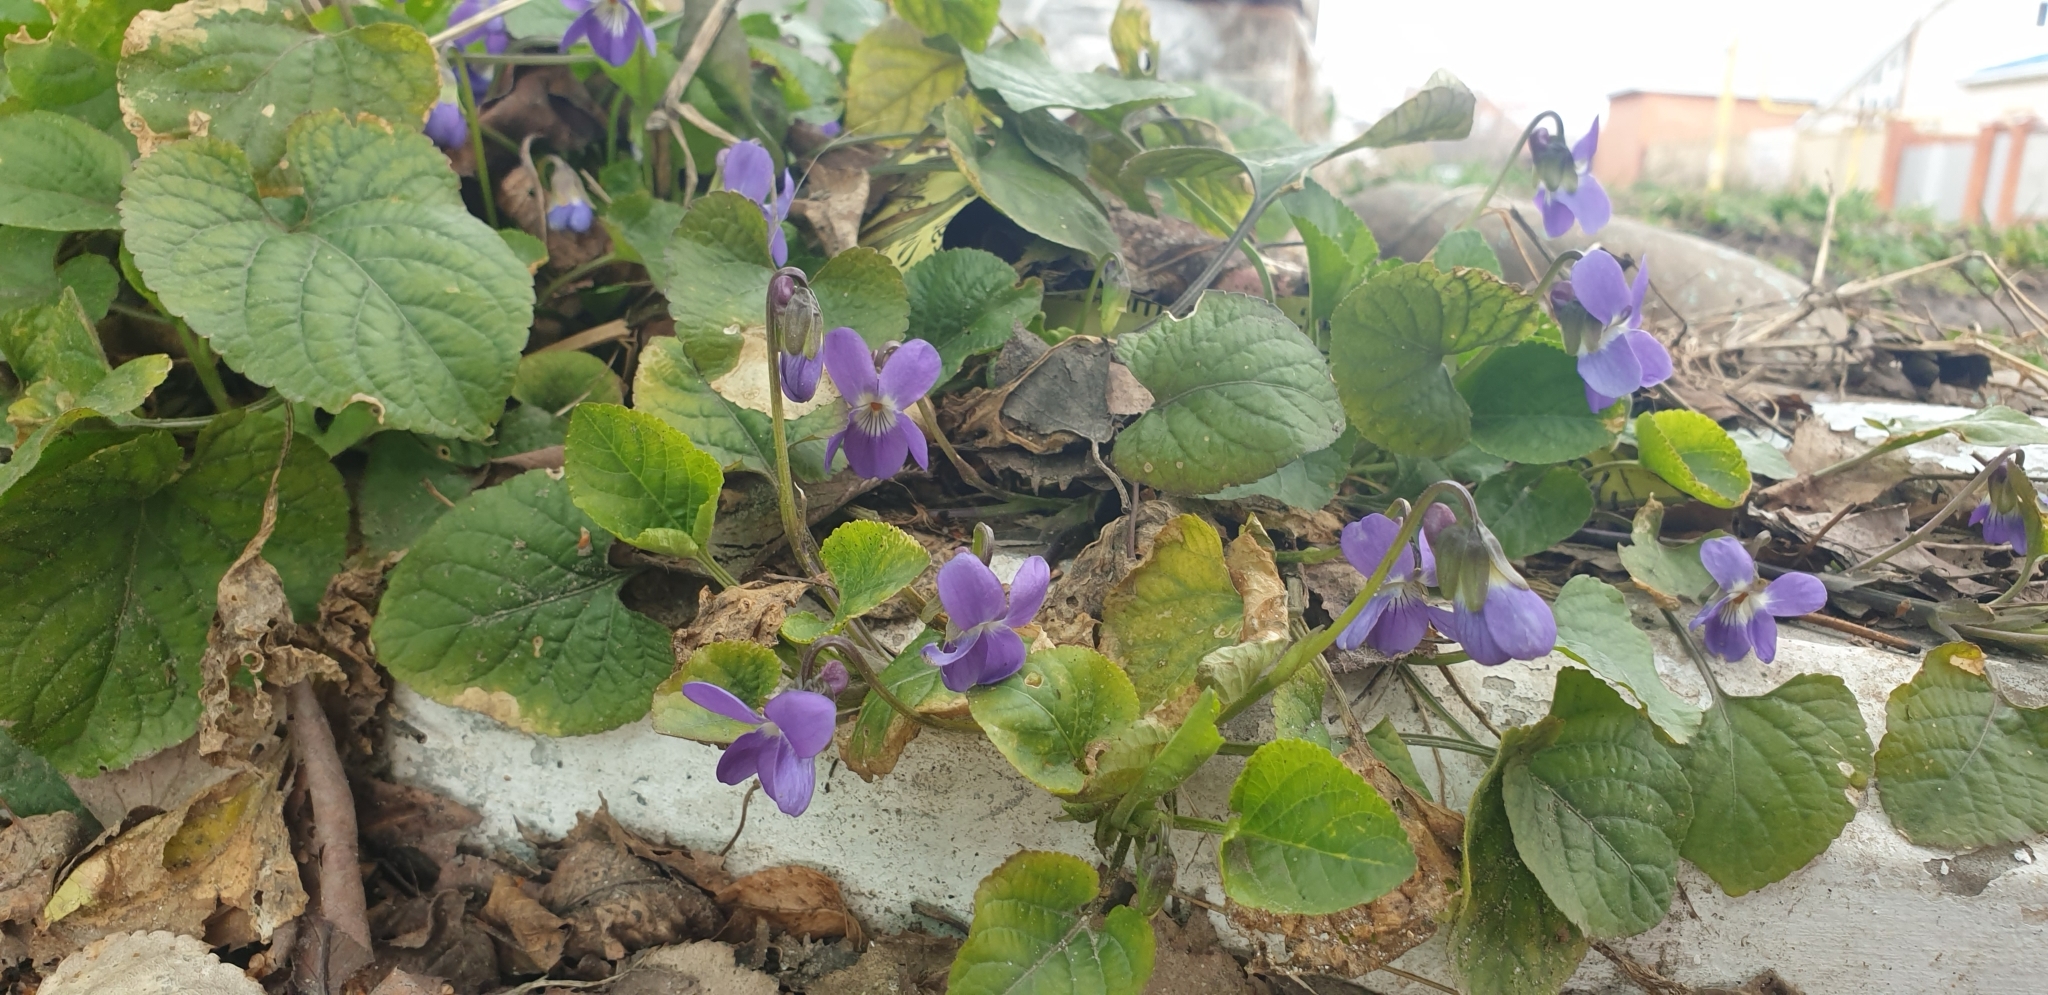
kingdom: Plantae
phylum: Tracheophyta
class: Magnoliopsida
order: Malpighiales
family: Violaceae
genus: Viola
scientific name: Viola odorata
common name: Sweet violet
